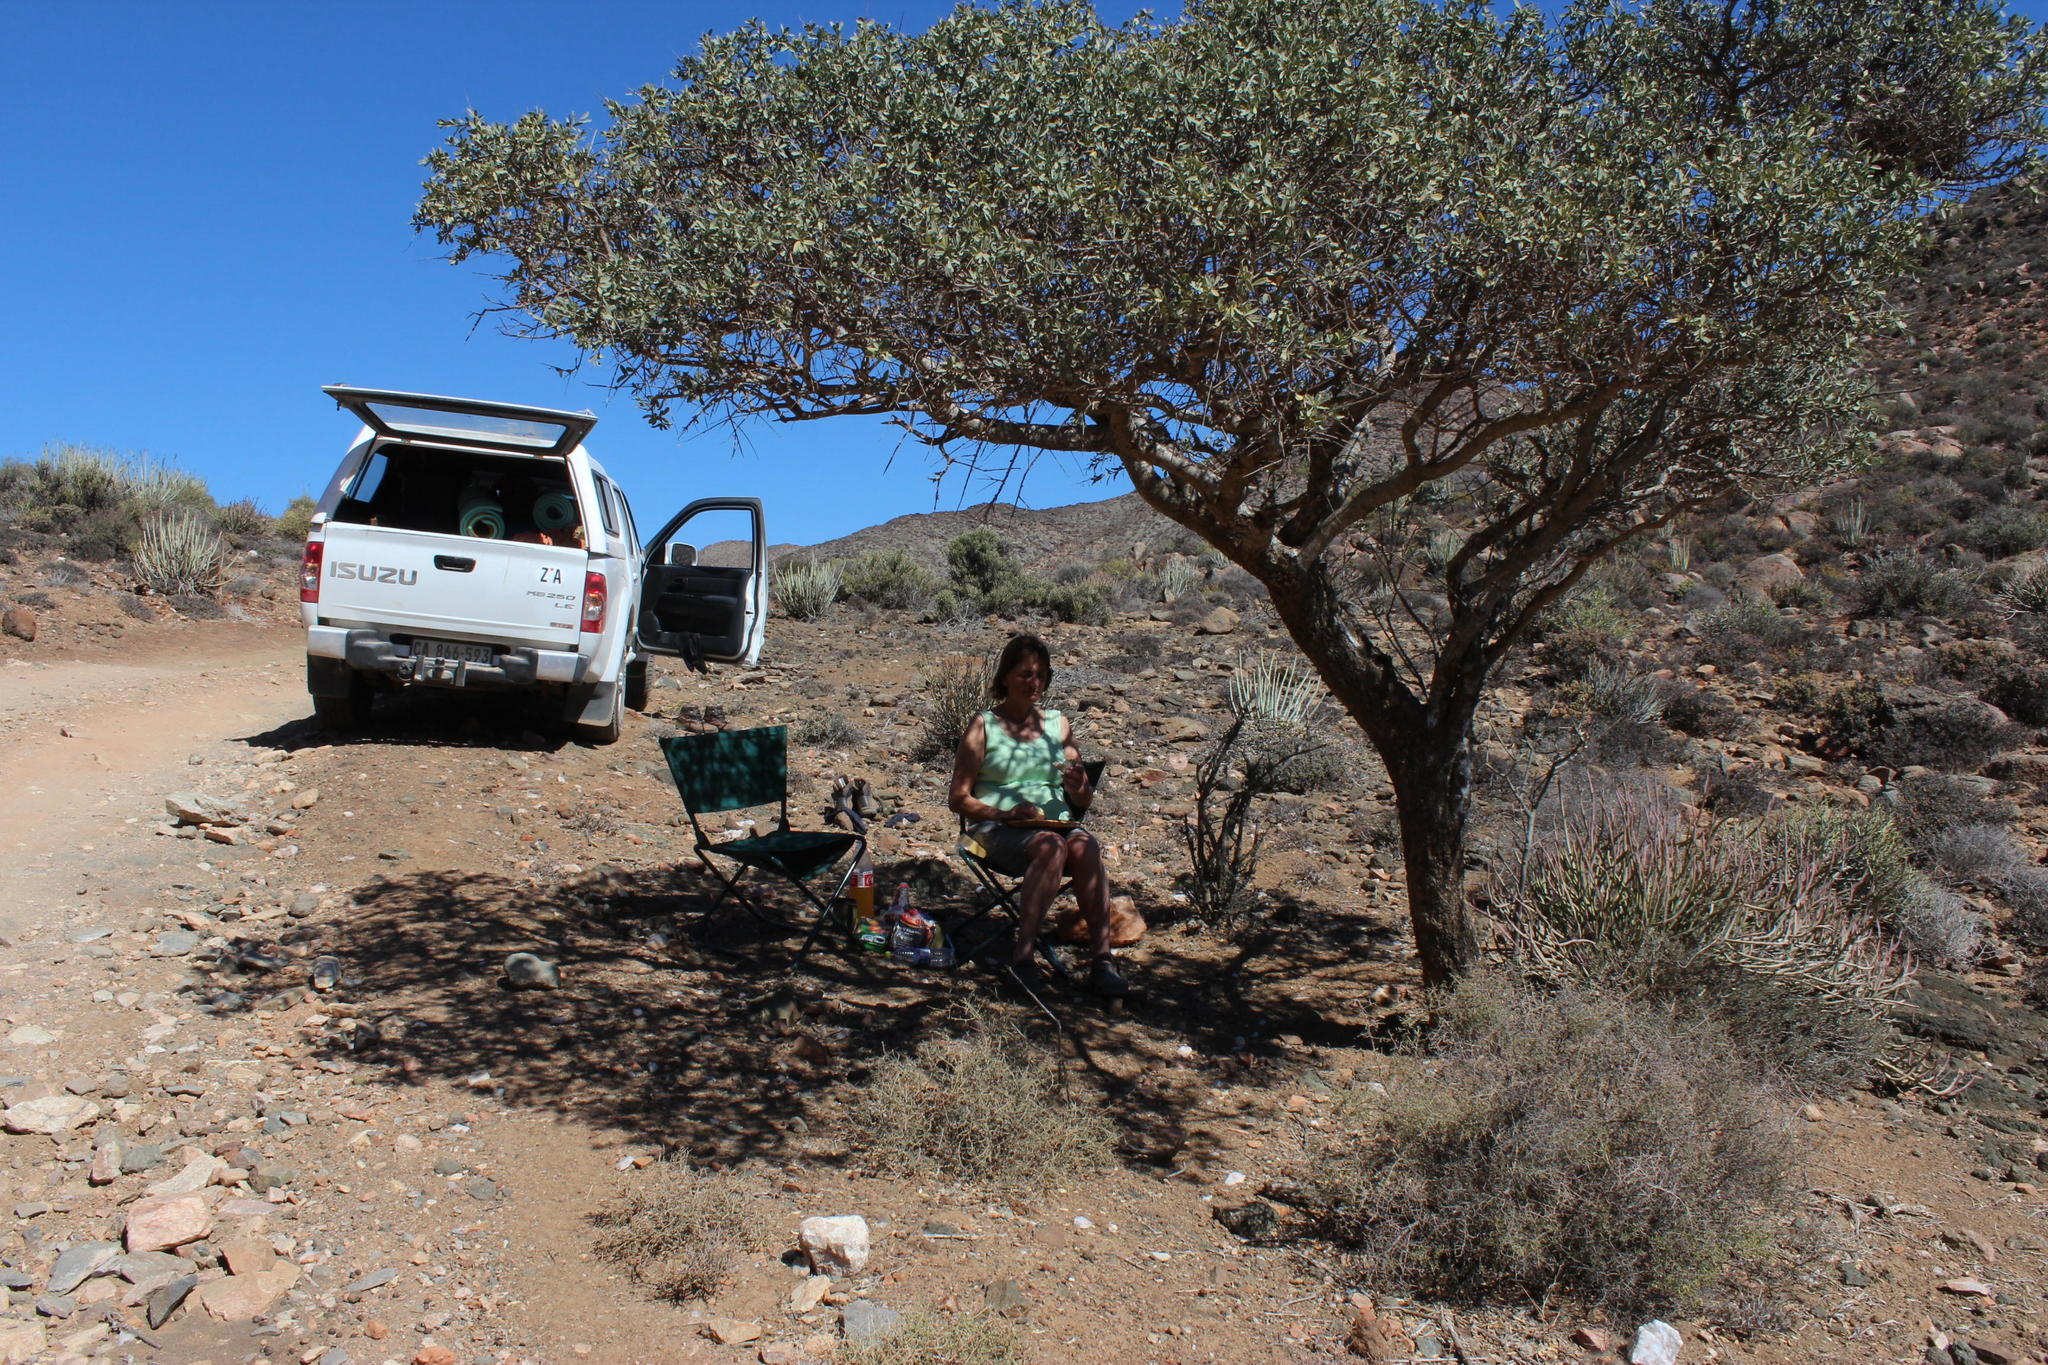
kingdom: Plantae
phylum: Tracheophyta
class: Magnoliopsida
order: Brassicales
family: Capparaceae
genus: Boscia
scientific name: Boscia albitrunca
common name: Caper bush
